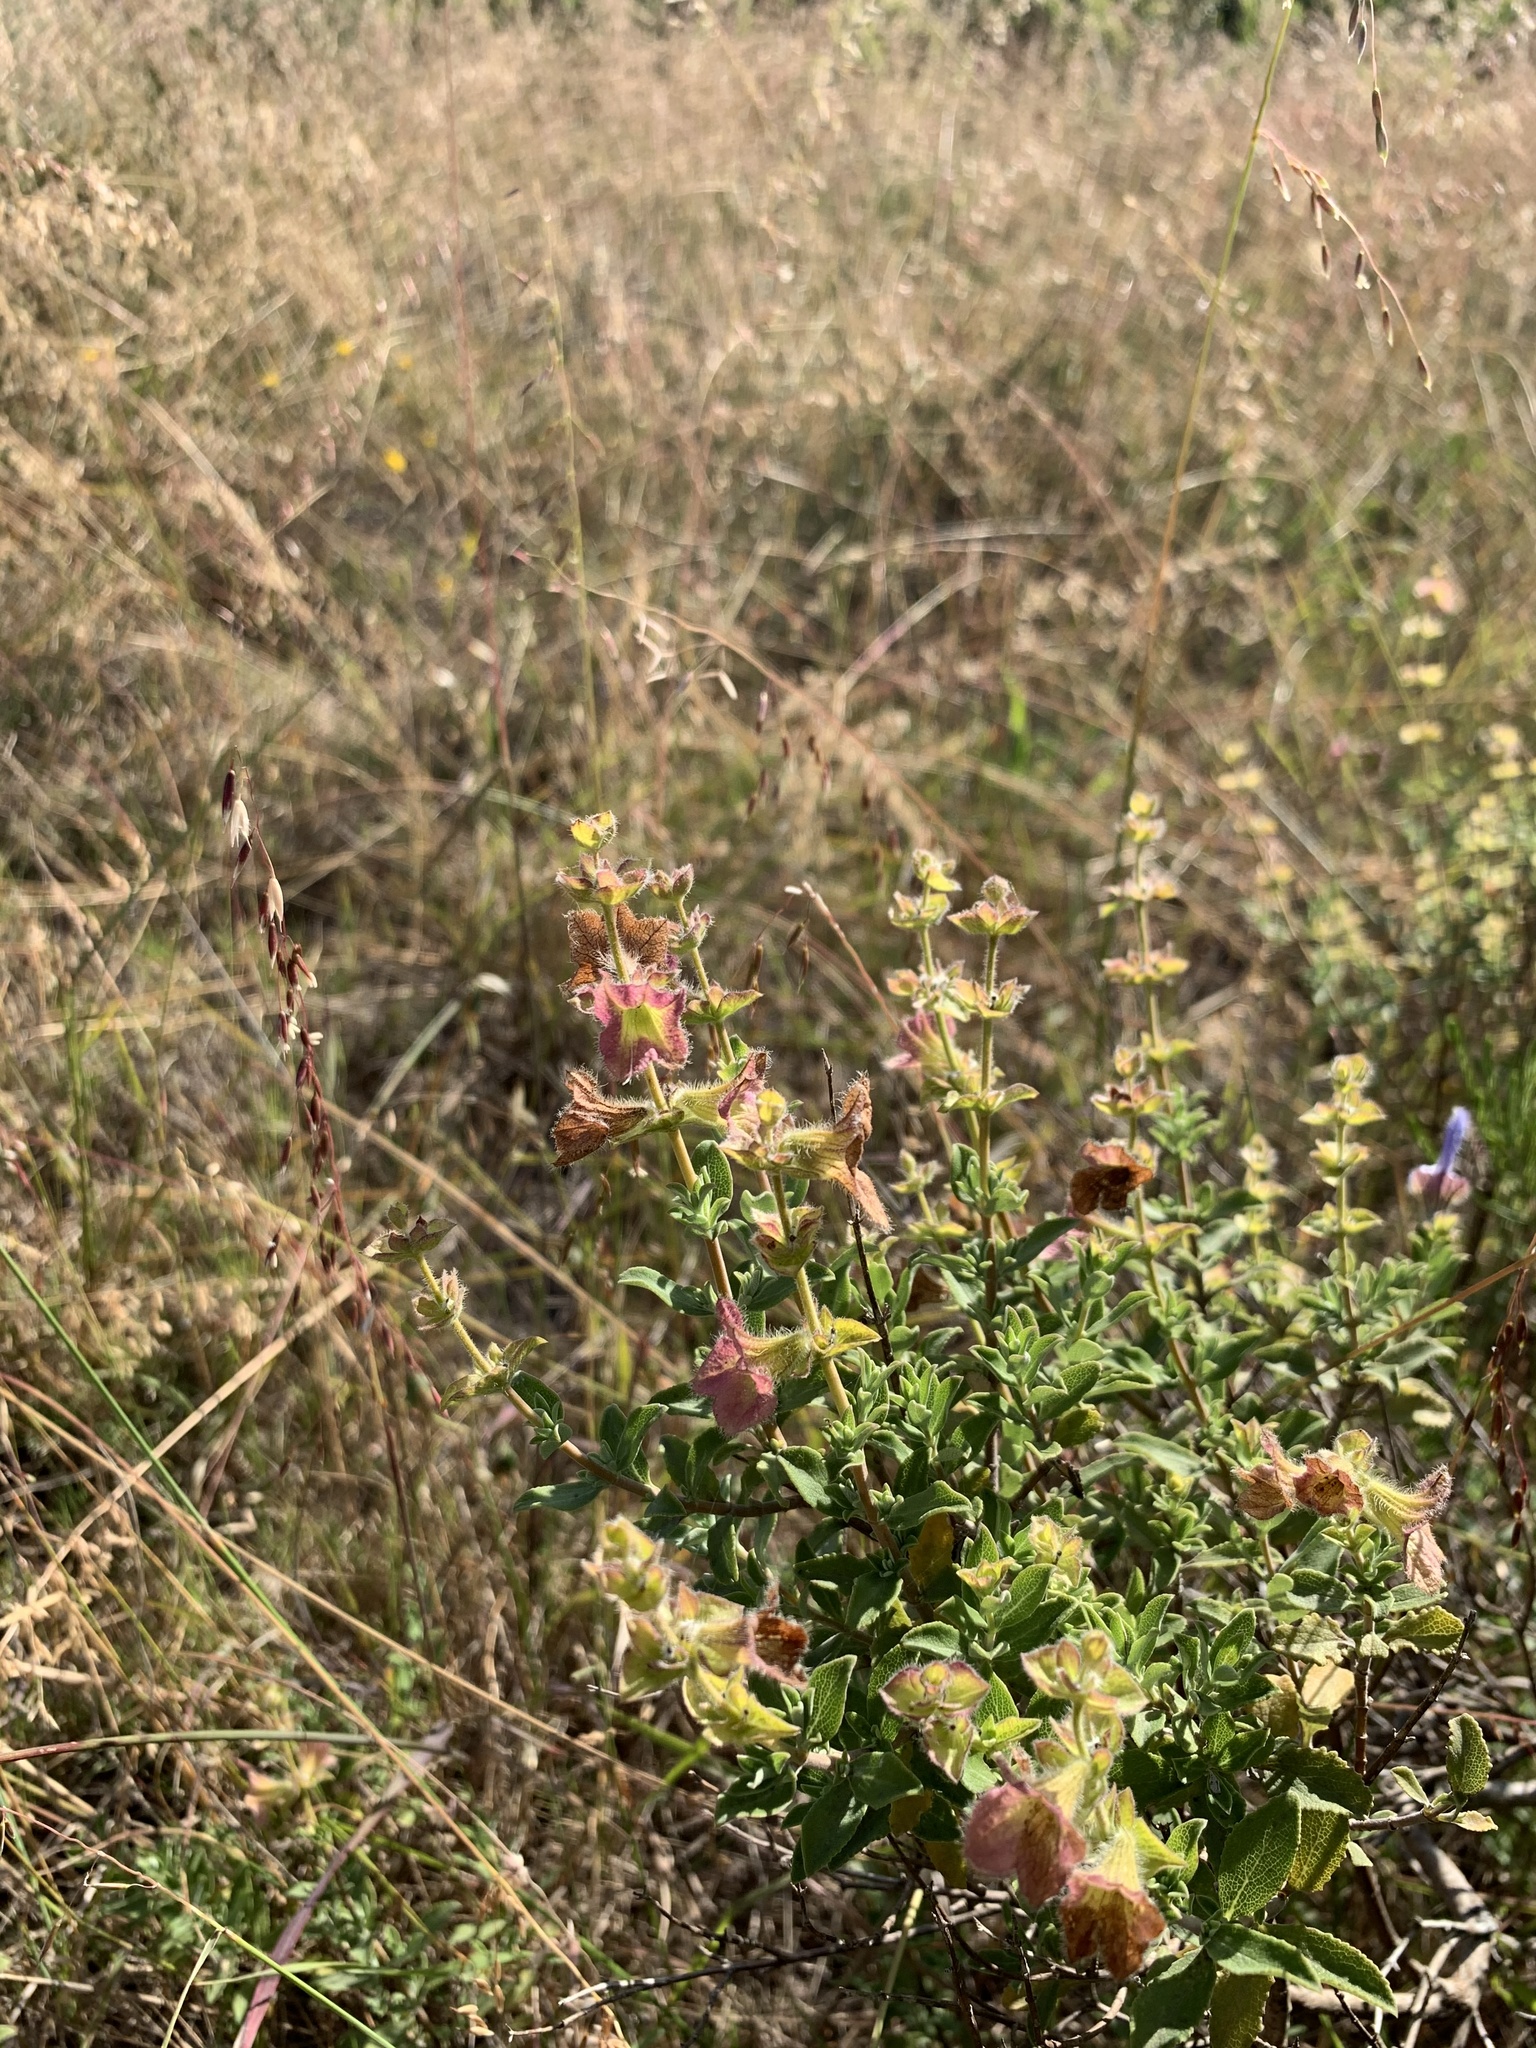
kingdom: Plantae
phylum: Tracheophyta
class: Magnoliopsida
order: Lamiales
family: Lamiaceae
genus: Salvia
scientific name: Salvia africana
